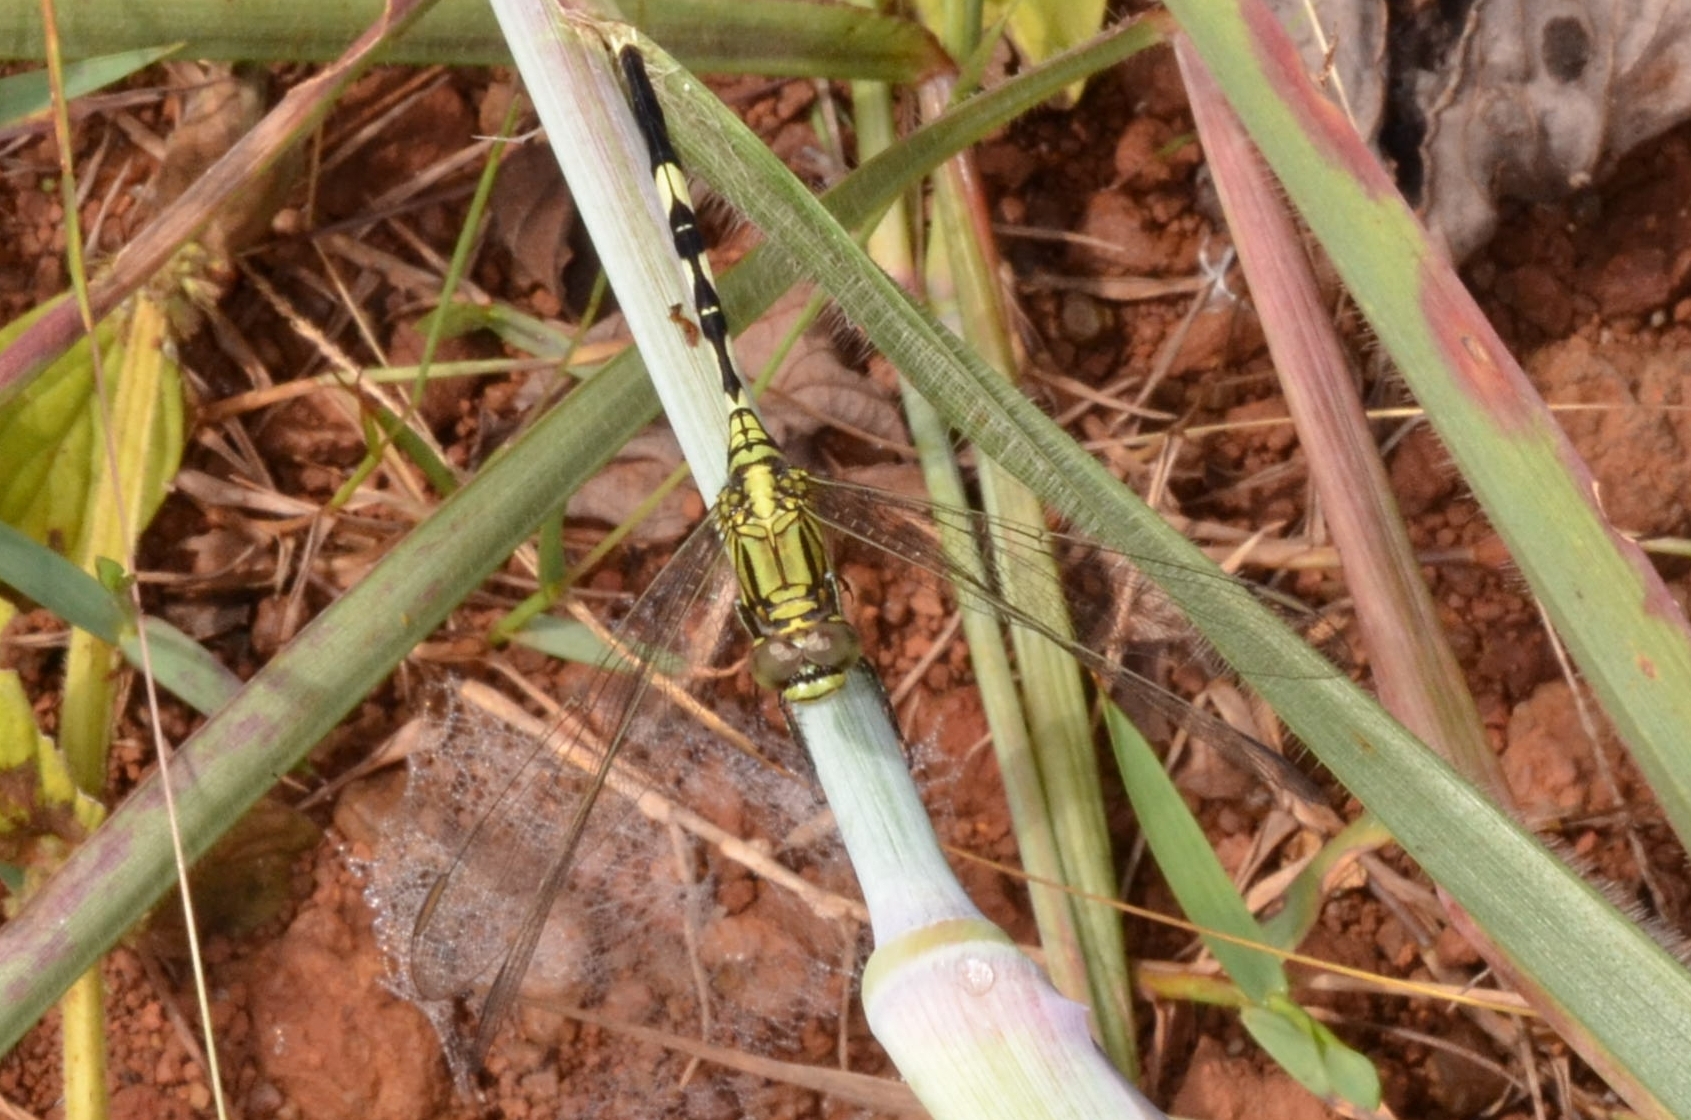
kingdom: Animalia
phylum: Arthropoda
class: Insecta
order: Odonata
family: Libellulidae
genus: Orthetrum
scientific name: Orthetrum sabina
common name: Slender skimmer
